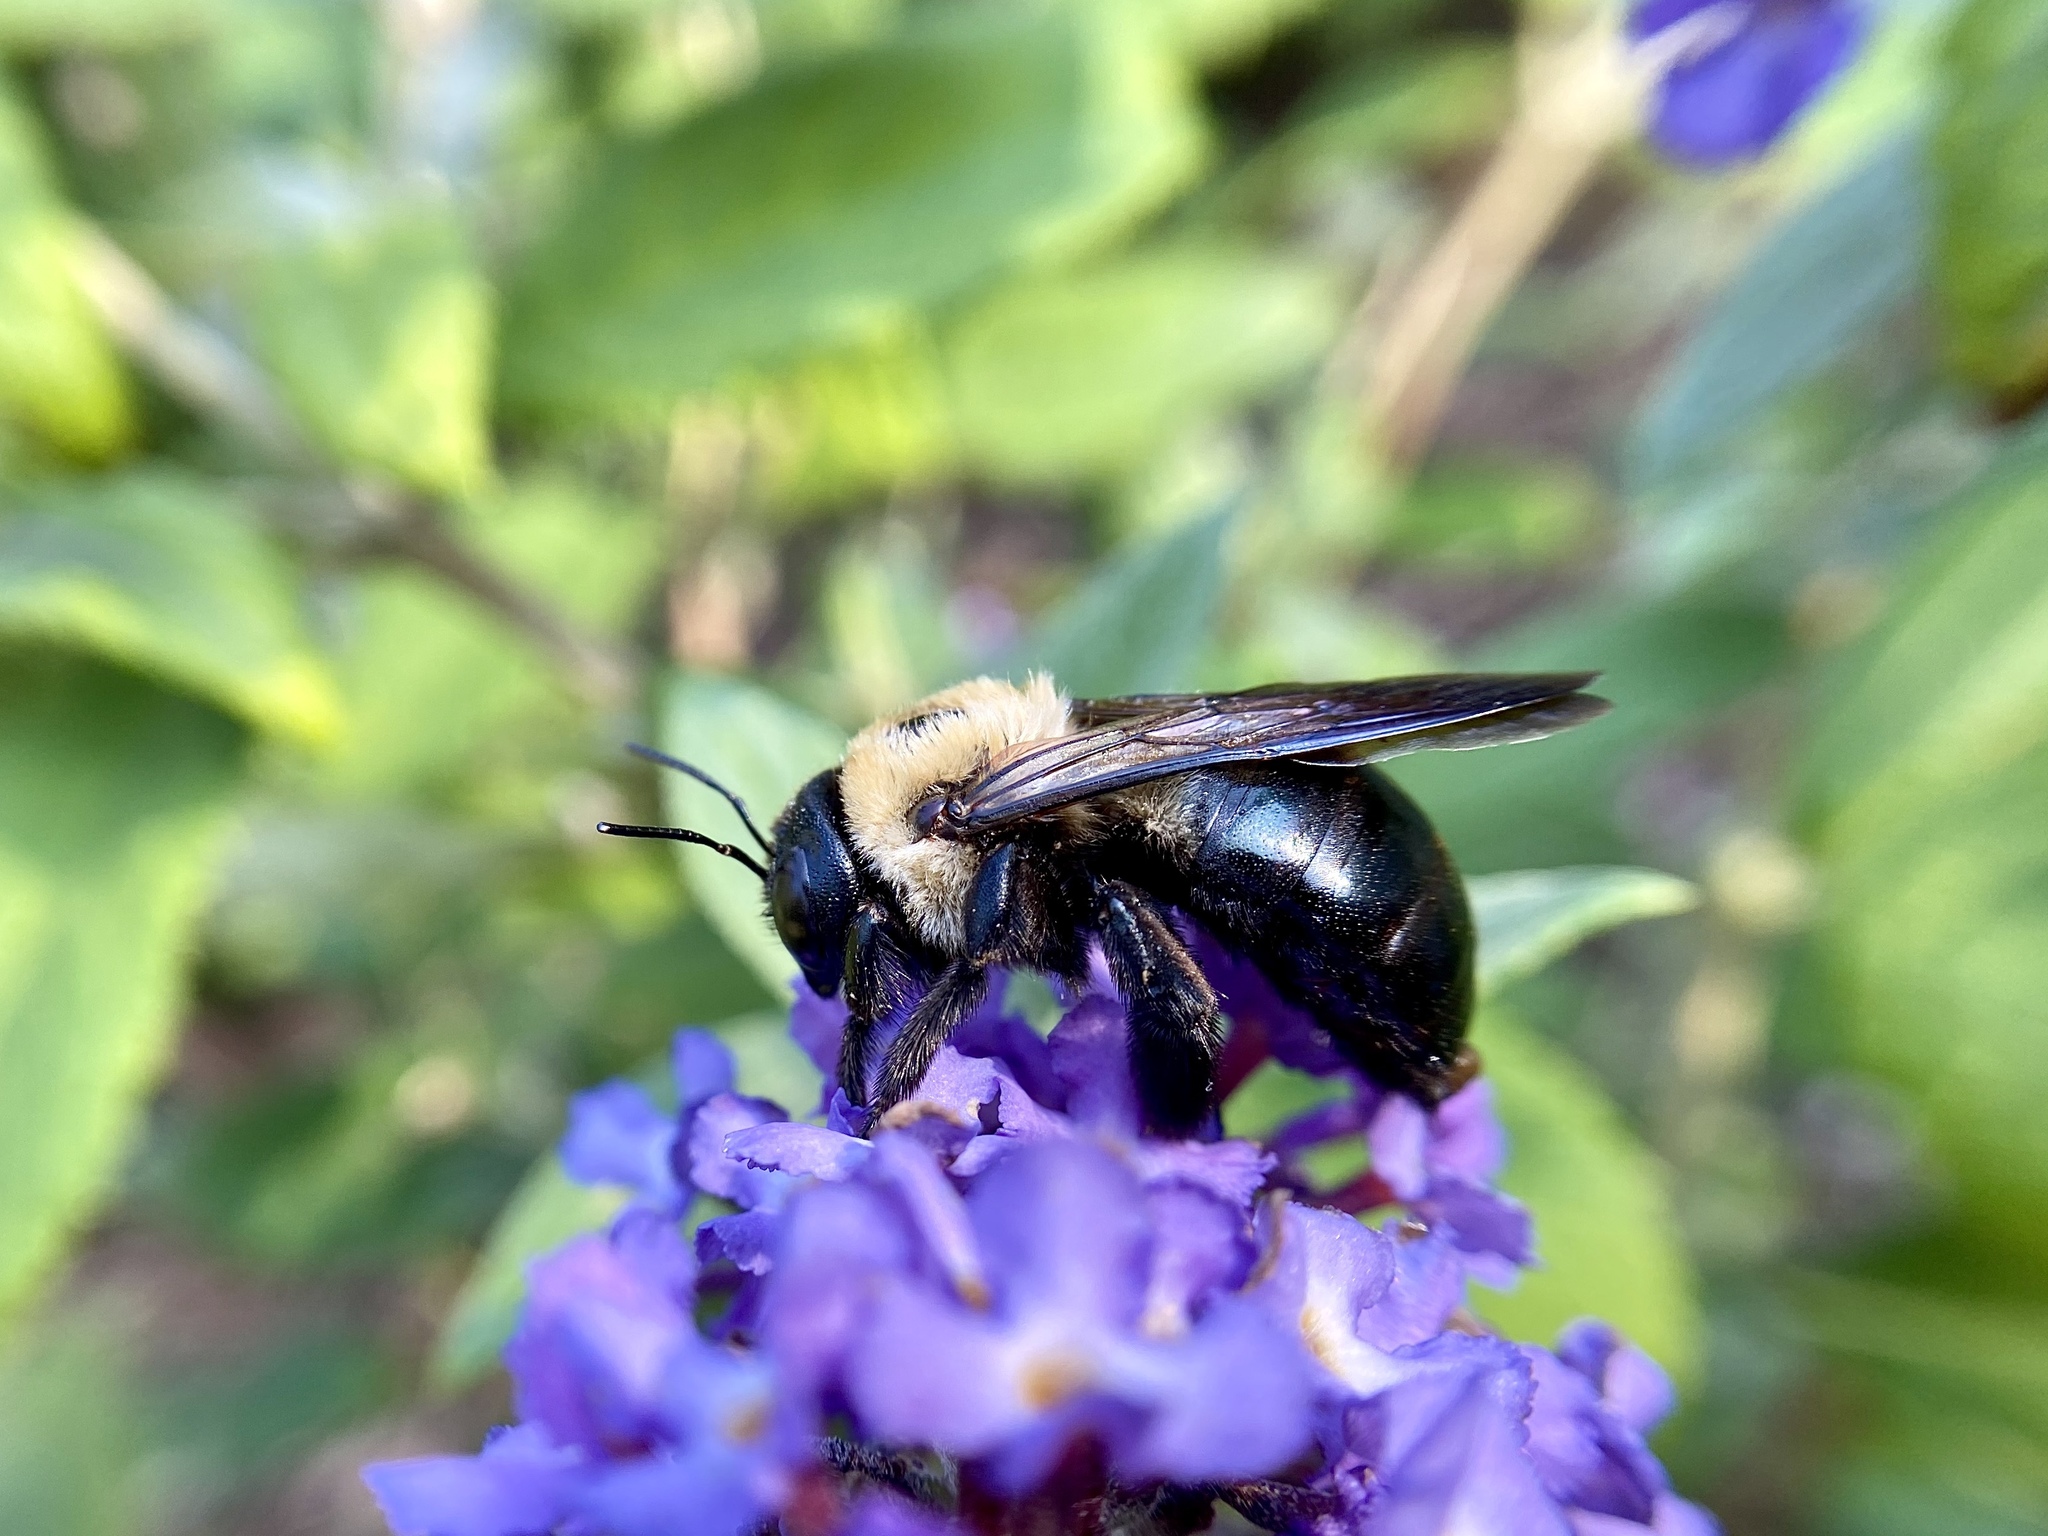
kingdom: Animalia
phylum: Arthropoda
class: Insecta
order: Hymenoptera
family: Apidae
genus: Xylocopa
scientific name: Xylocopa virginica
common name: Carpenter bee
